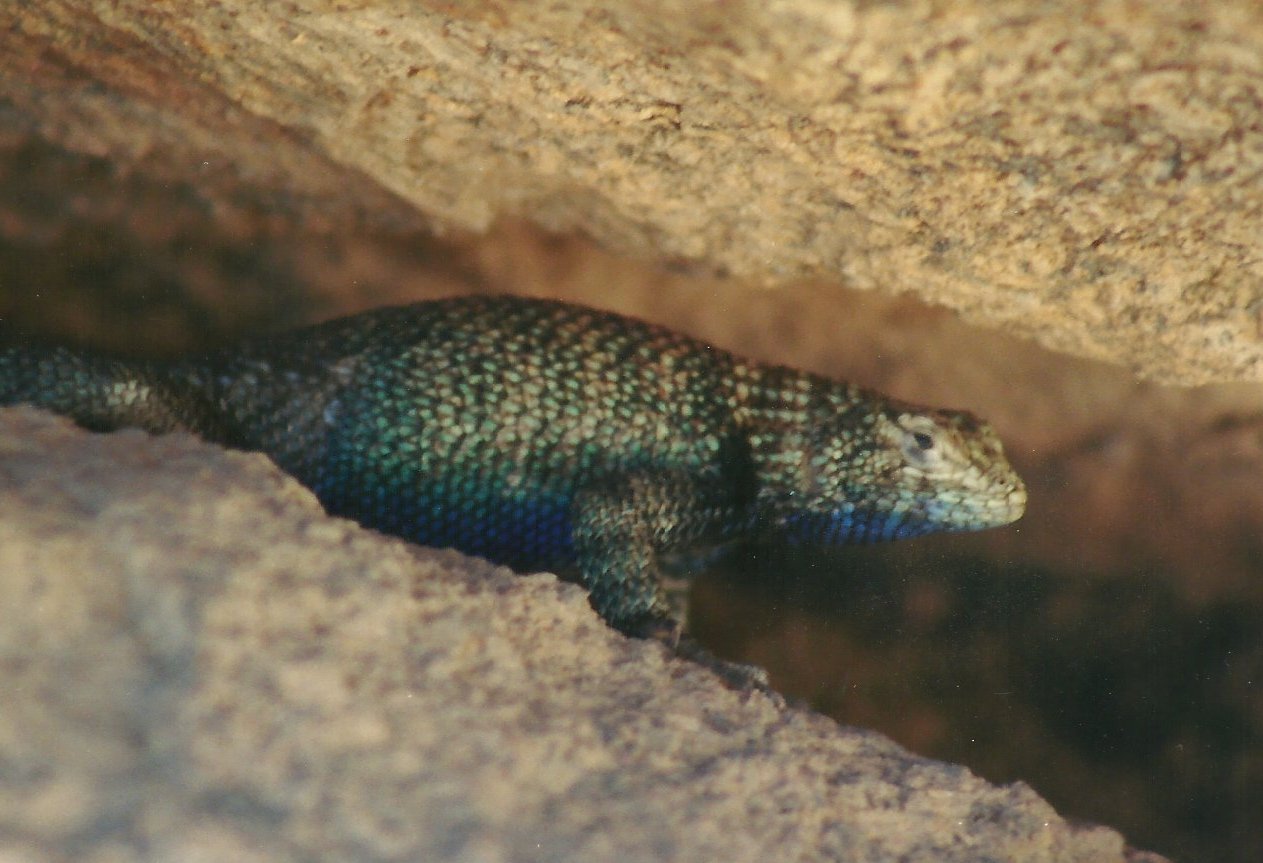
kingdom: Animalia
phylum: Chordata
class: Squamata
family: Phrynosomatidae
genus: Sceloporus
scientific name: Sceloporus orcutti
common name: Granite spiny lizard
